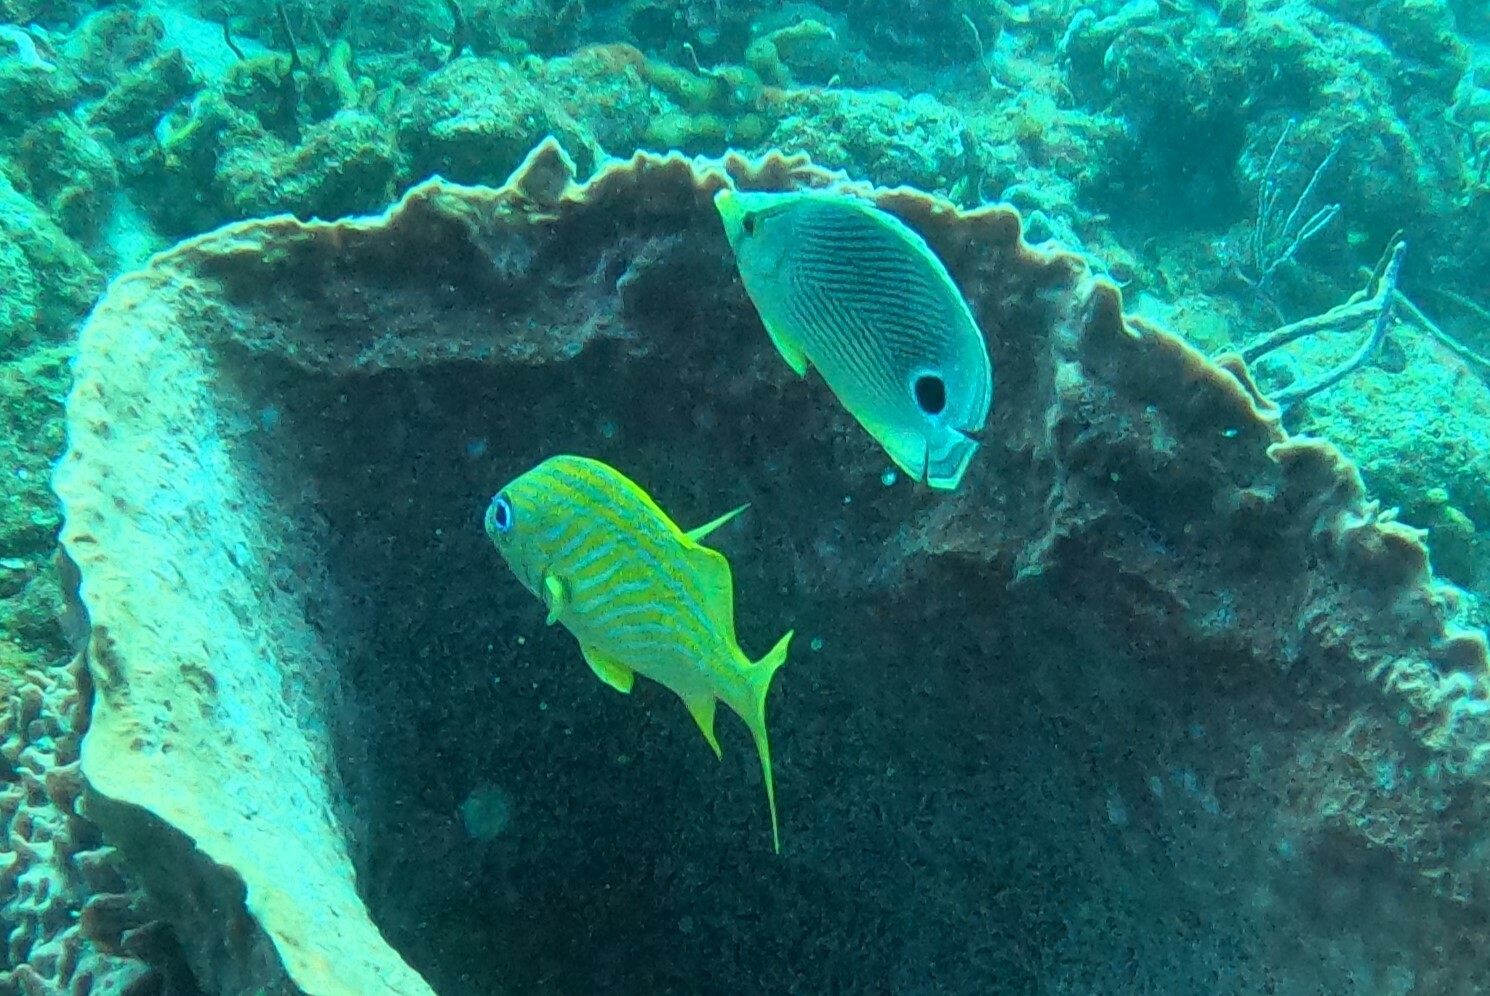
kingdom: Animalia
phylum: Chordata
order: Perciformes
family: Chaetodontidae
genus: Chaetodon
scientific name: Chaetodon capistratus
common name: Kete
